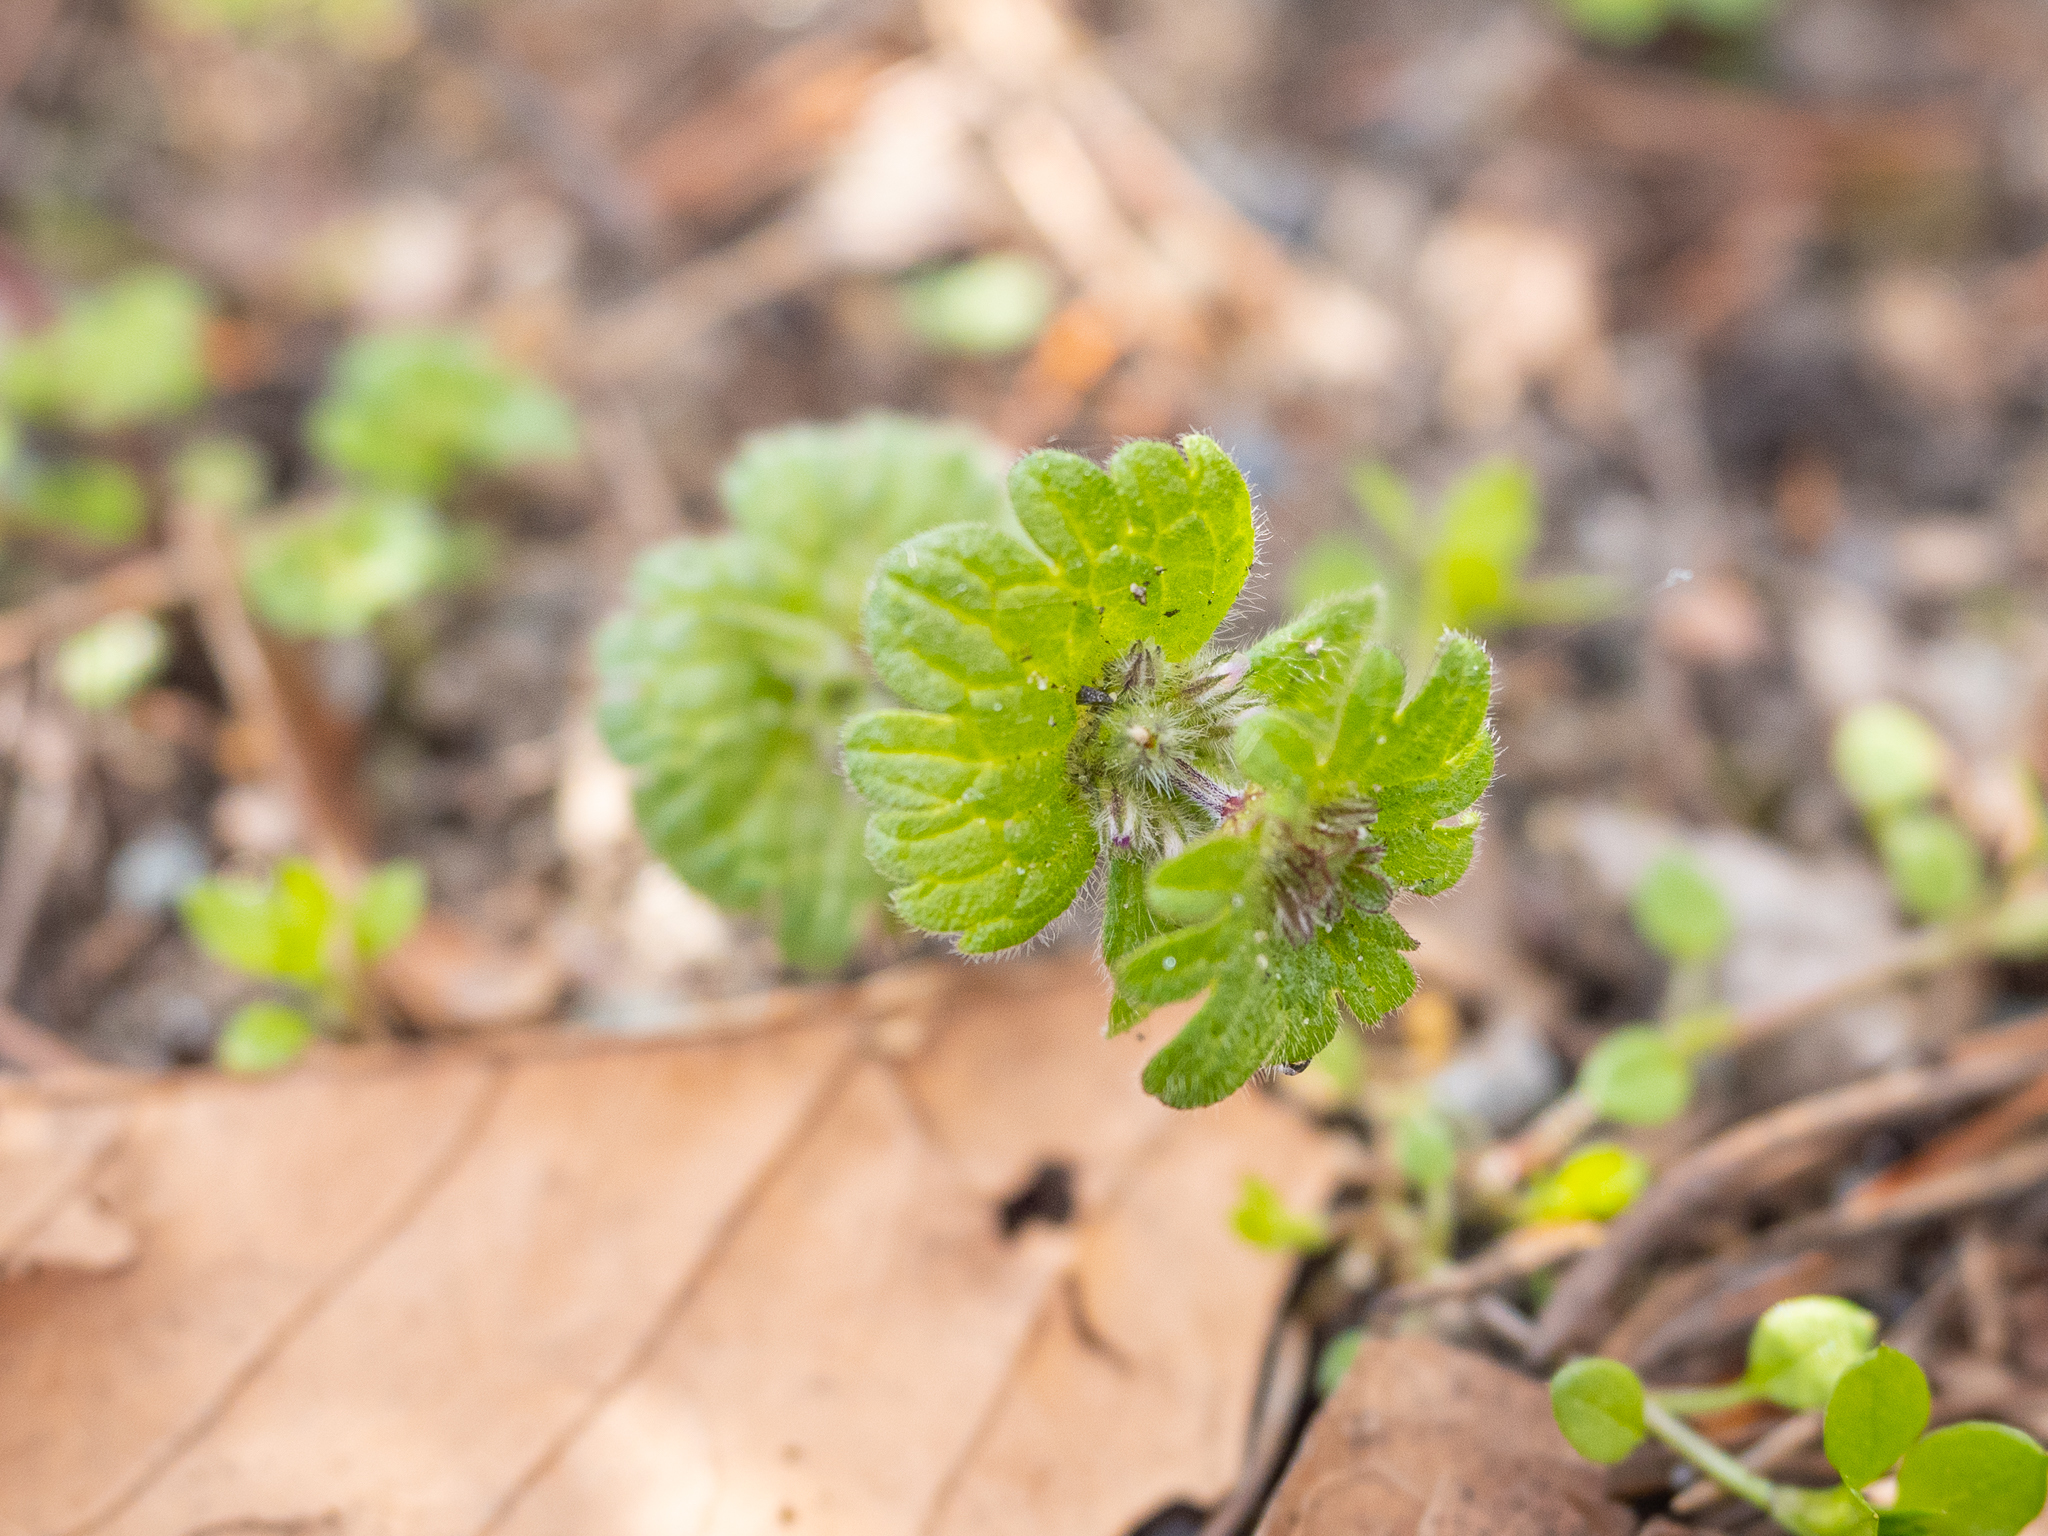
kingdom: Plantae
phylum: Tracheophyta
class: Magnoliopsida
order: Lamiales
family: Lamiaceae
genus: Lamium
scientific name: Lamium amplexicaule
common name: Henbit dead-nettle
